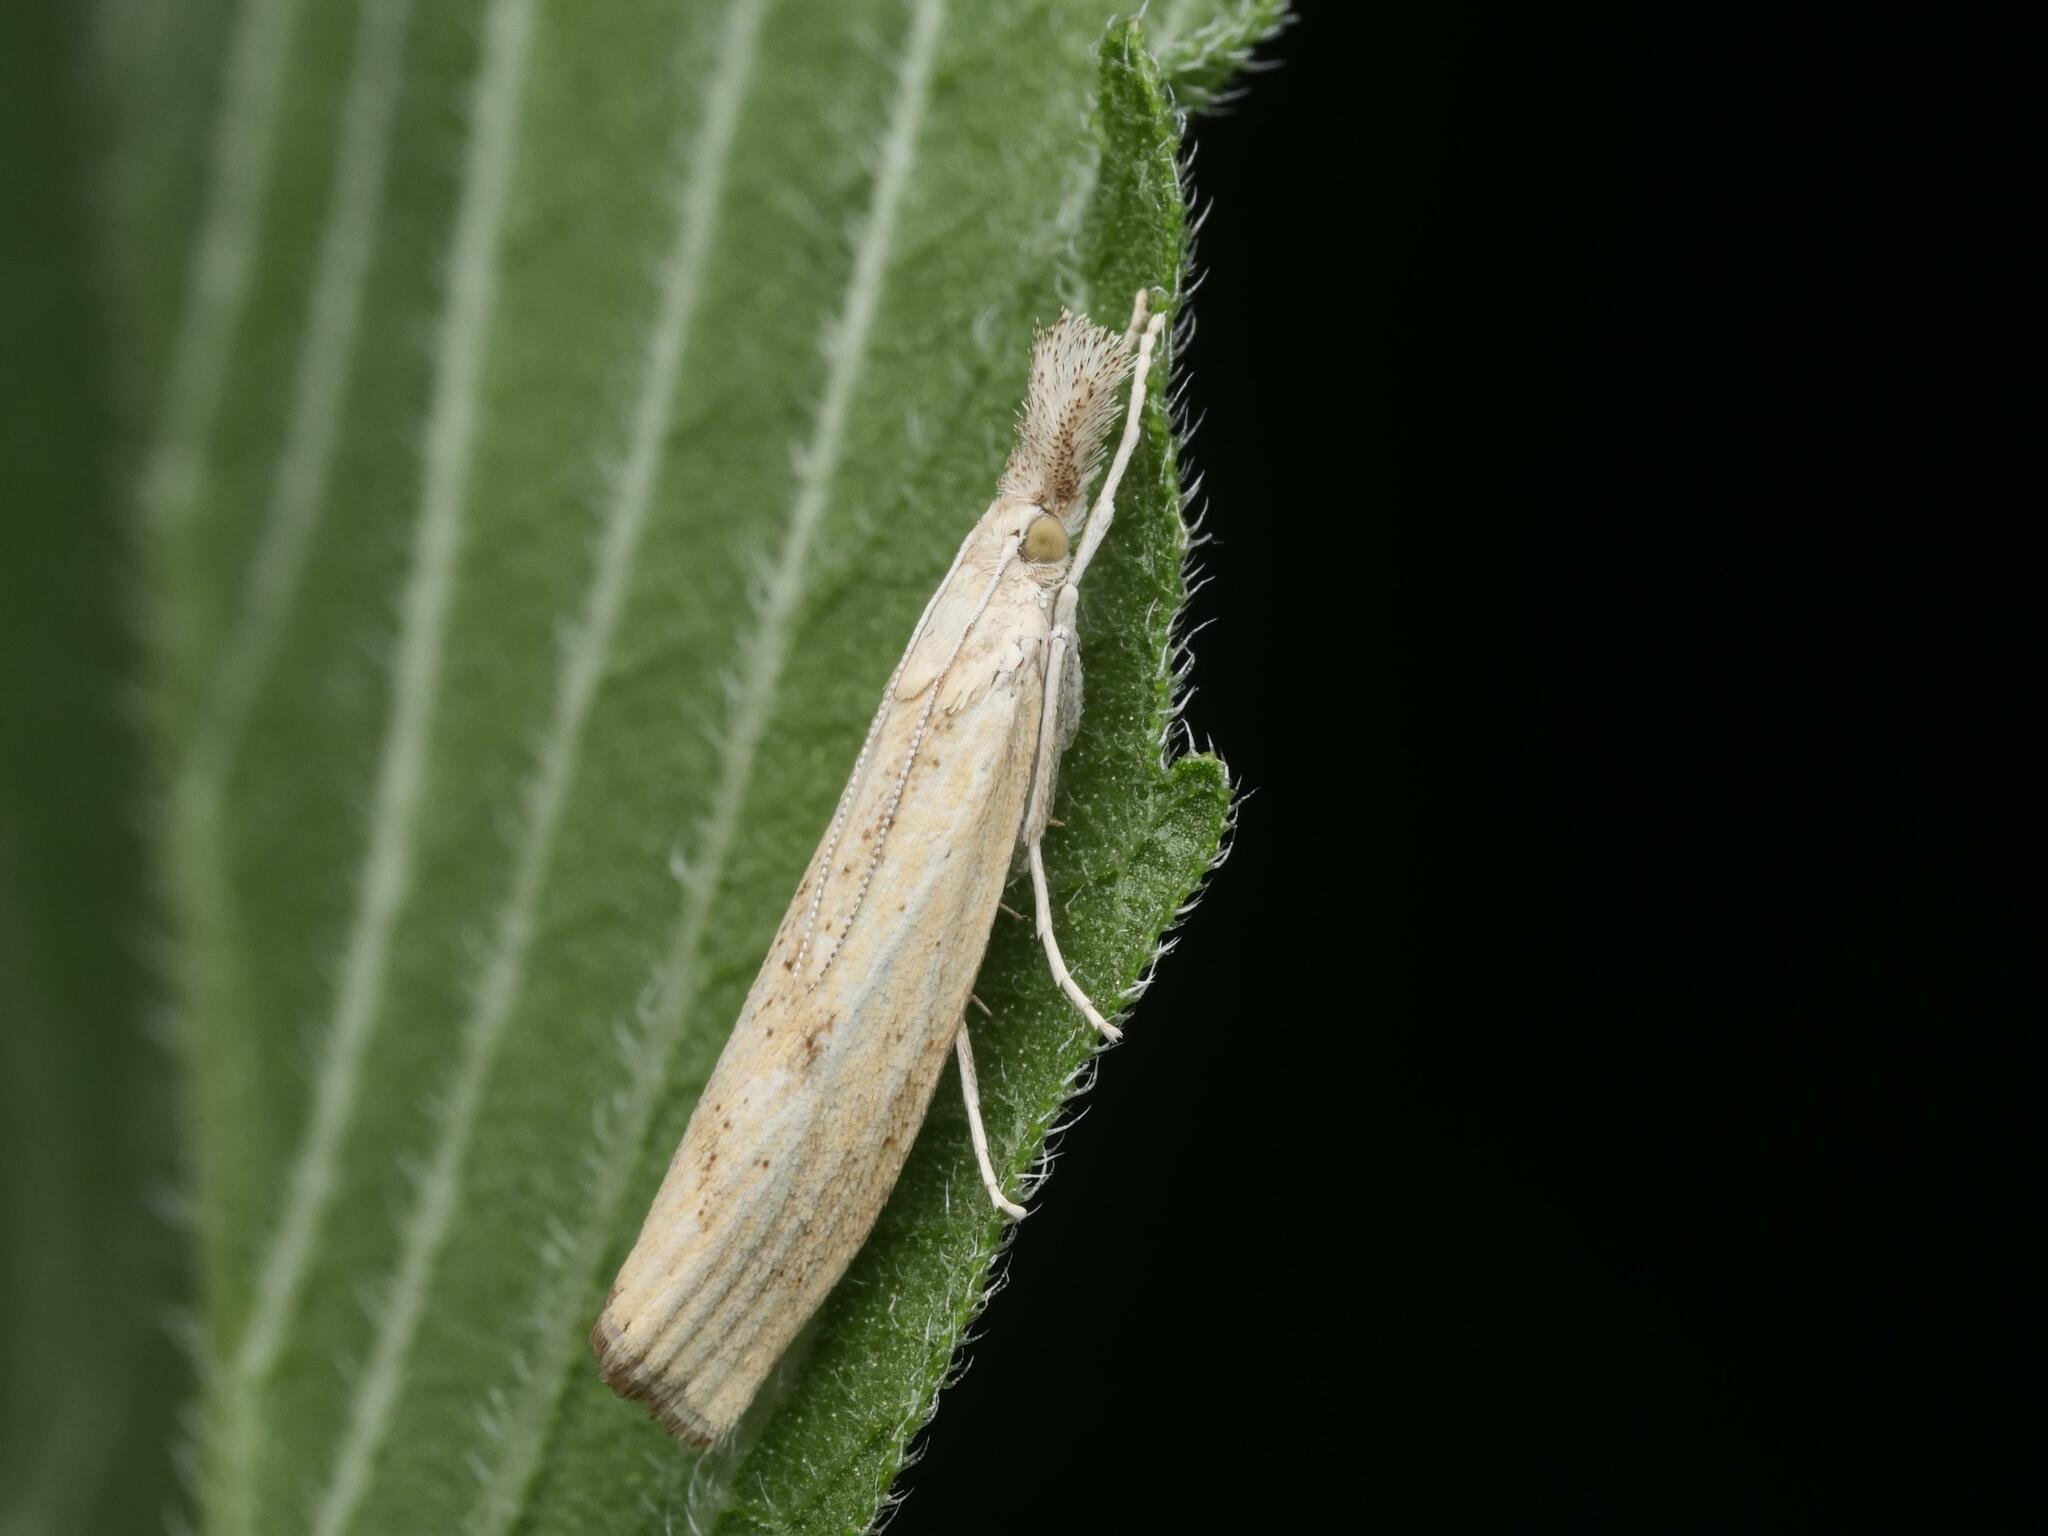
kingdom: Animalia
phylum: Arthropoda
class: Insecta
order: Lepidoptera
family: Crambidae
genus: Agriphila
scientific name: Agriphila inquinatella
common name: Barred grass-veneer
